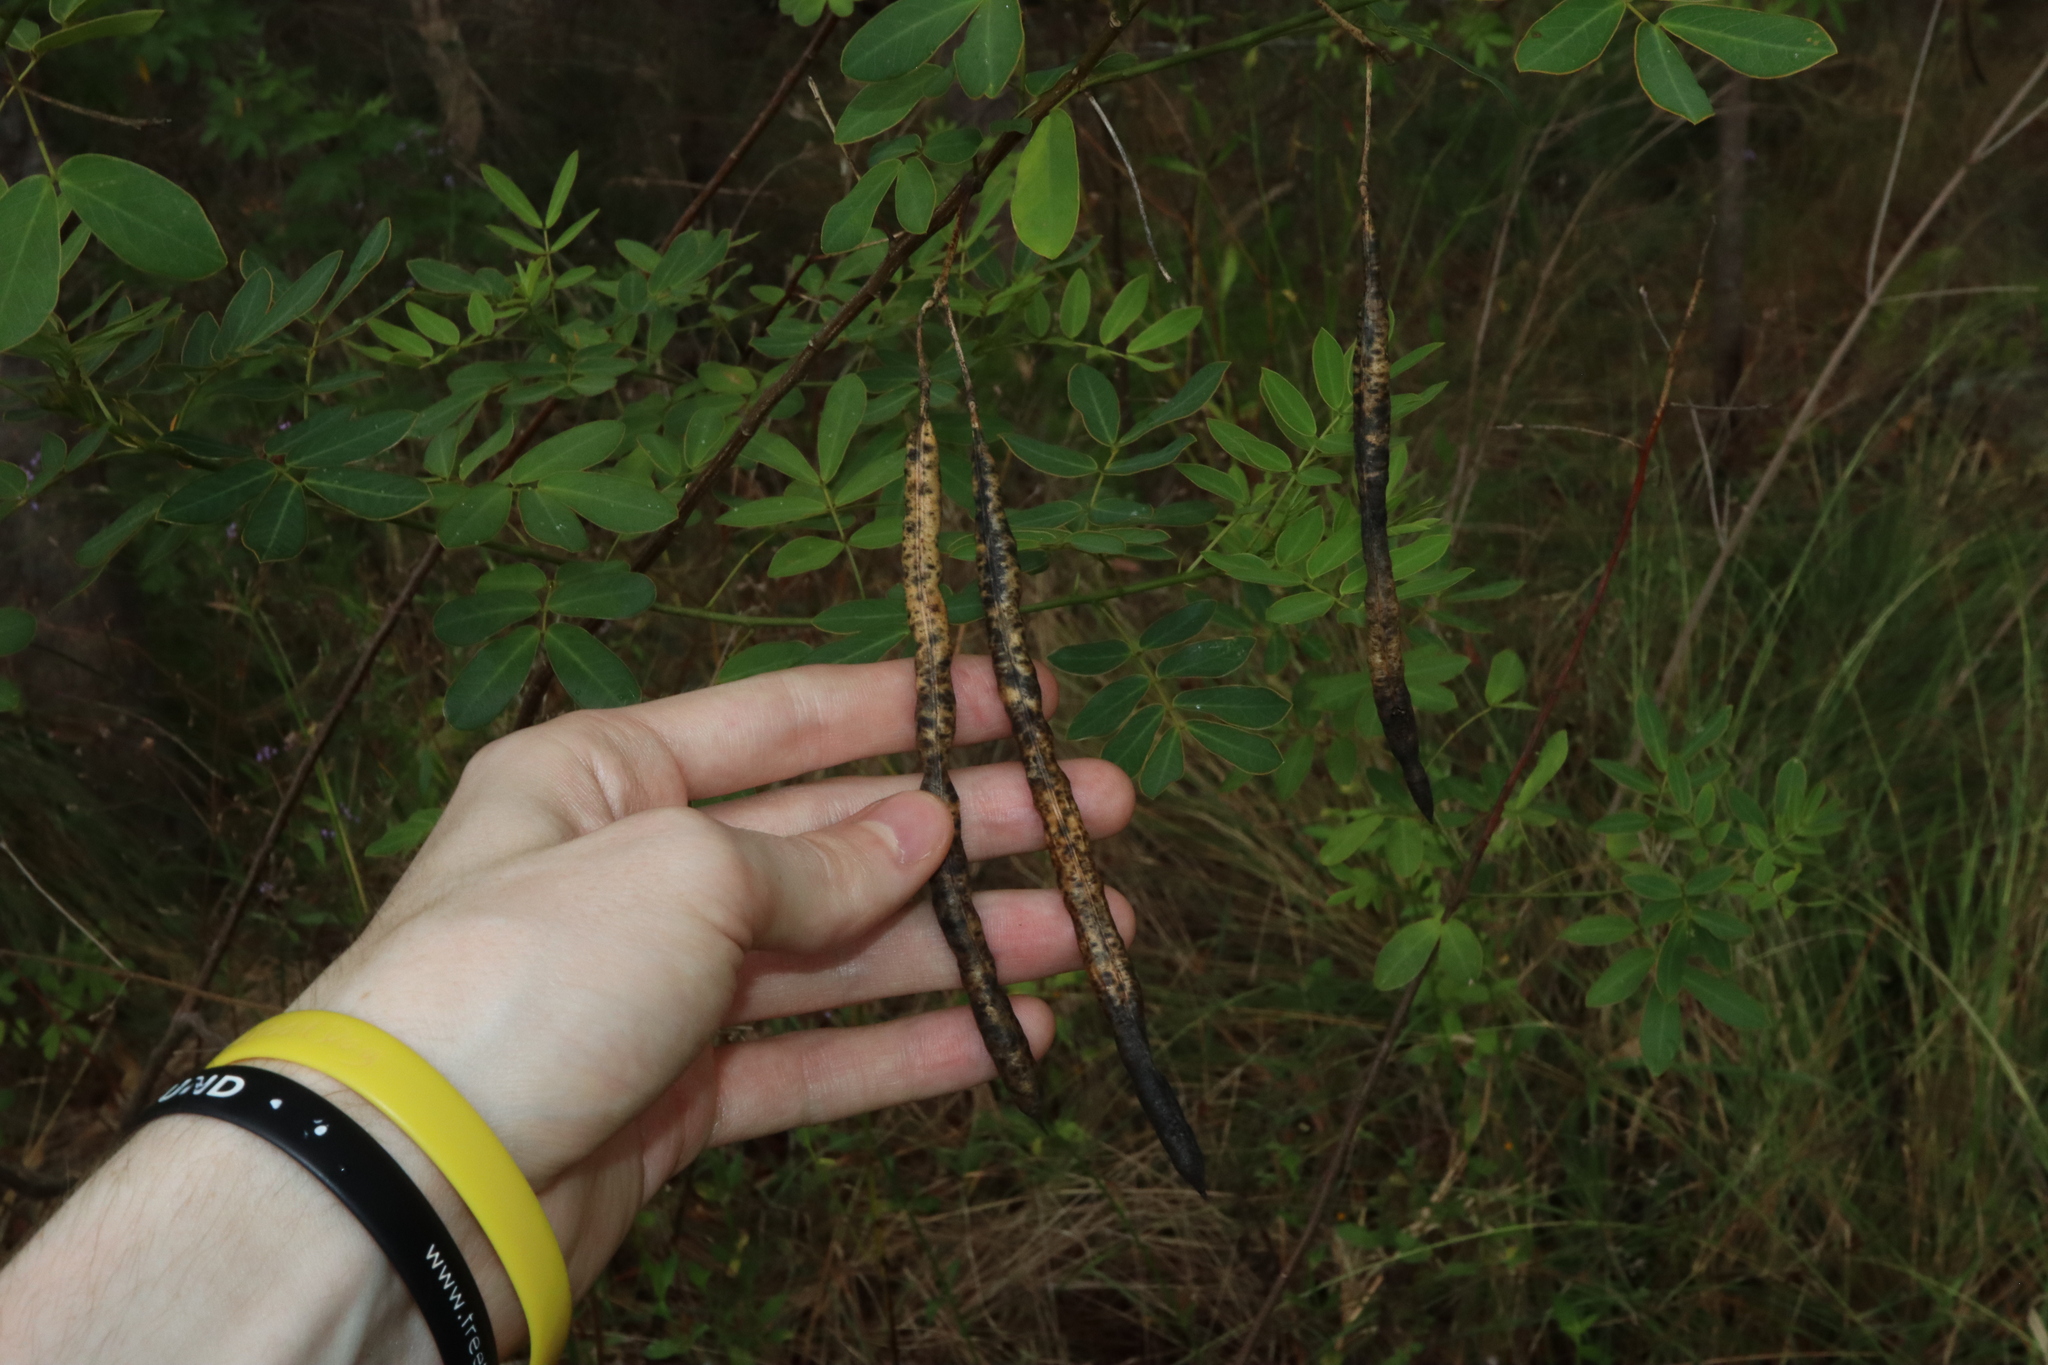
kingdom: Plantae
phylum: Tracheophyta
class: Magnoliopsida
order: Fabales
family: Fabaceae
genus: Senna
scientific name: Senna pendula
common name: Easter cassia
